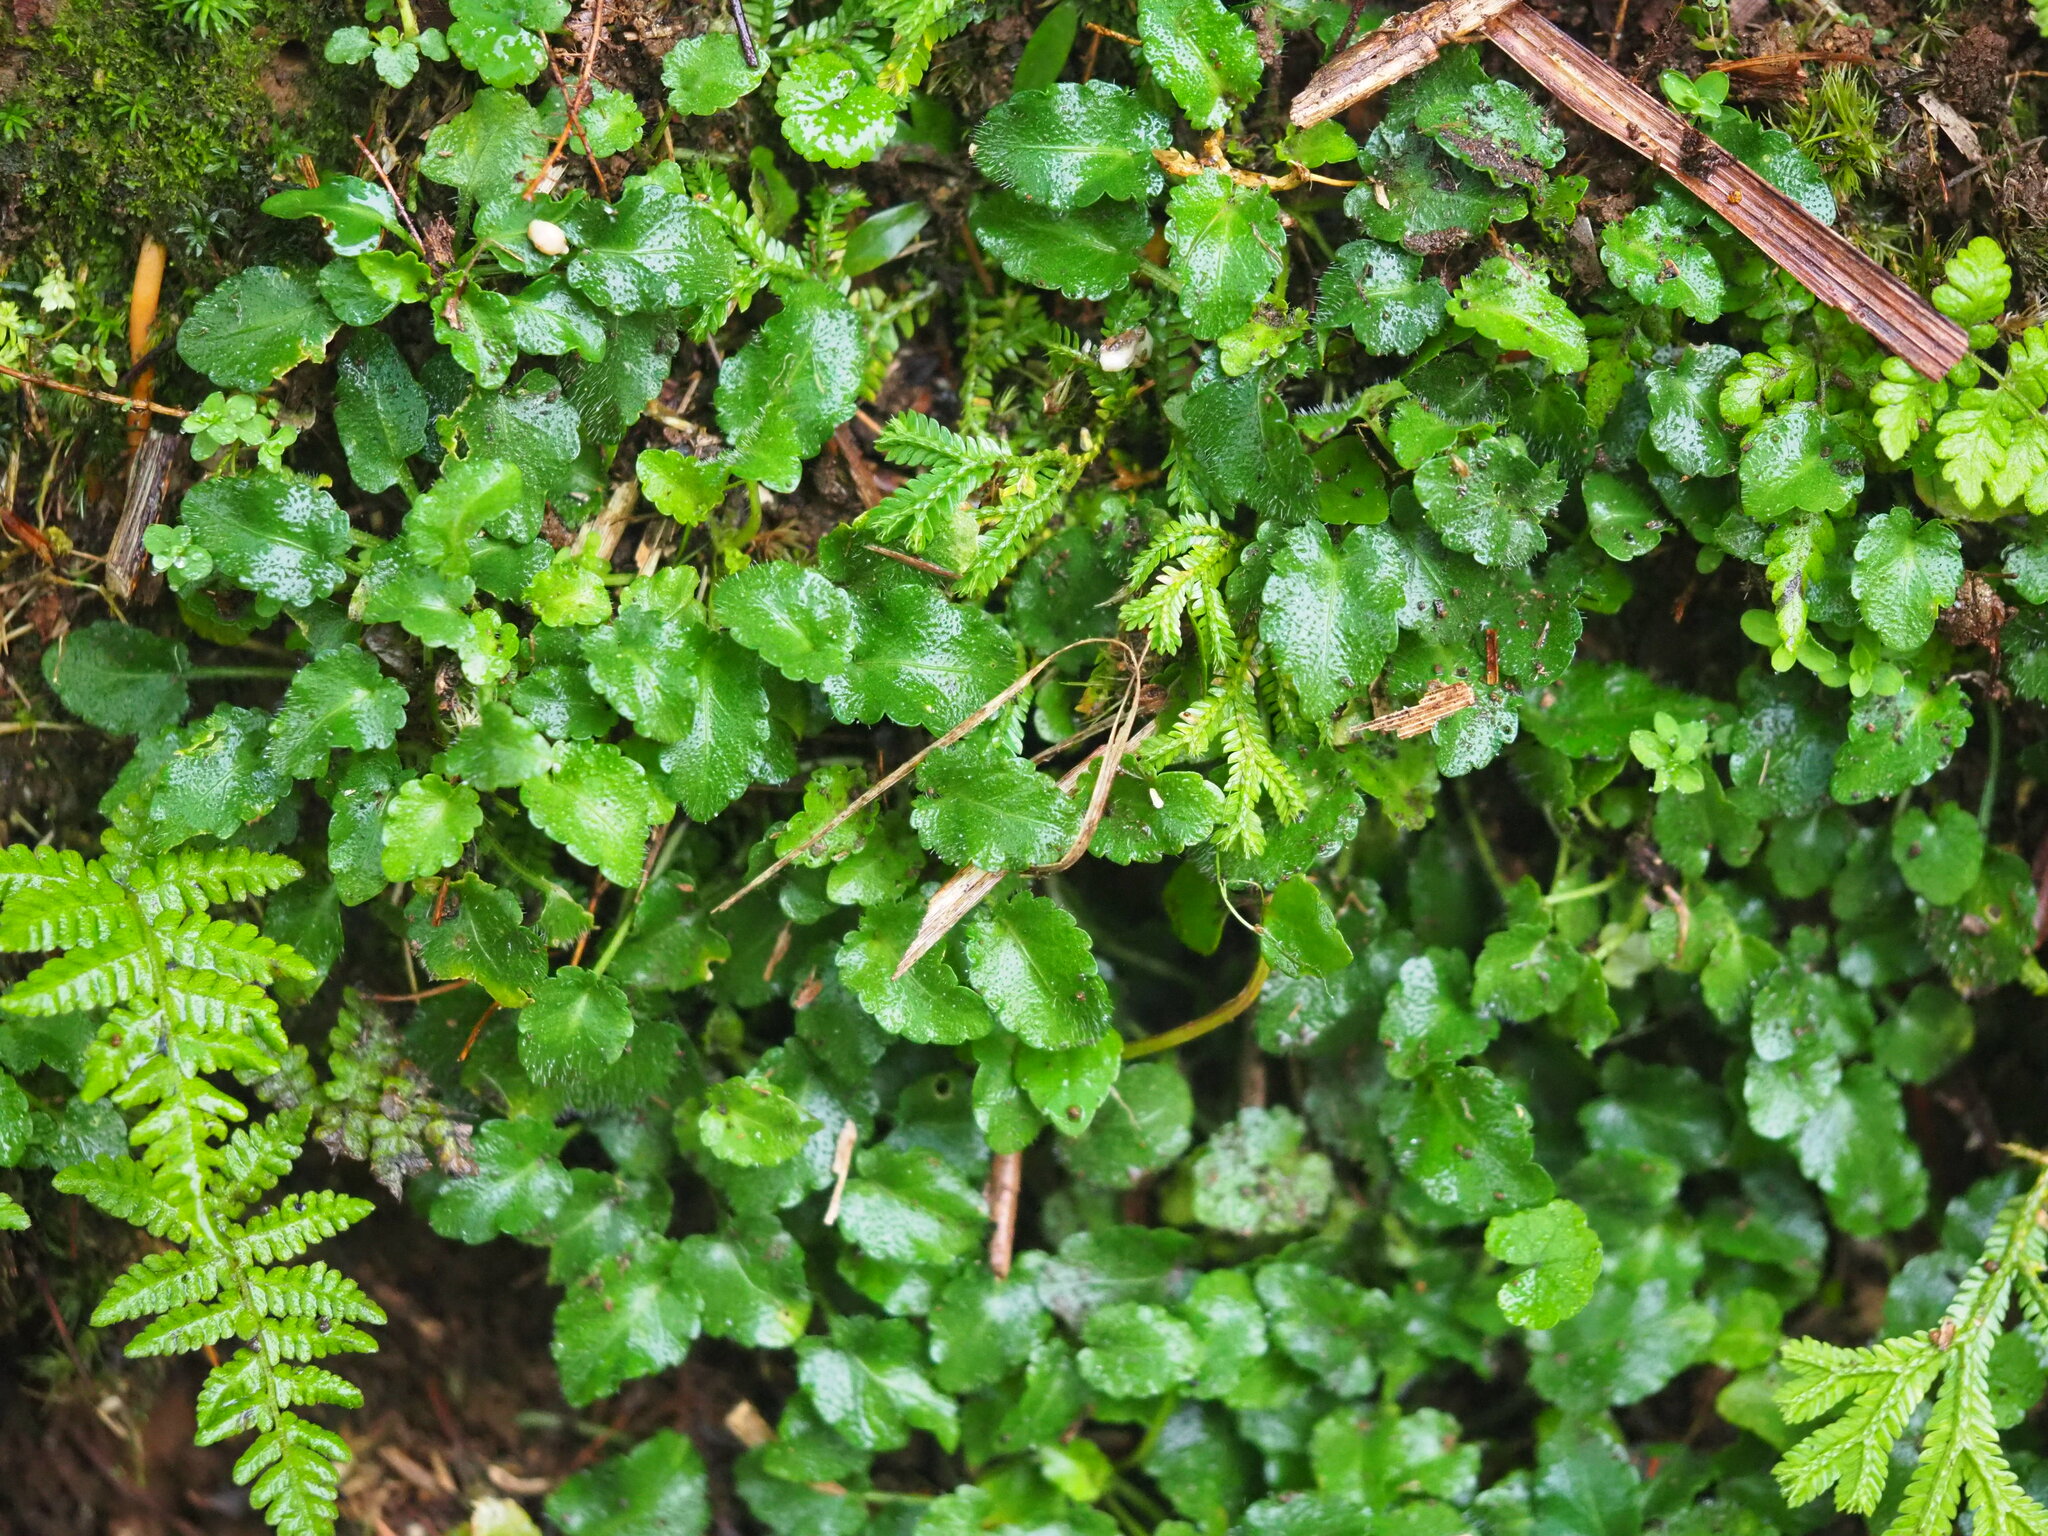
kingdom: Plantae
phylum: Tracheophyta
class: Magnoliopsida
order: Malpighiales
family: Violaceae
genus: Viola
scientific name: Viola nagasawae
